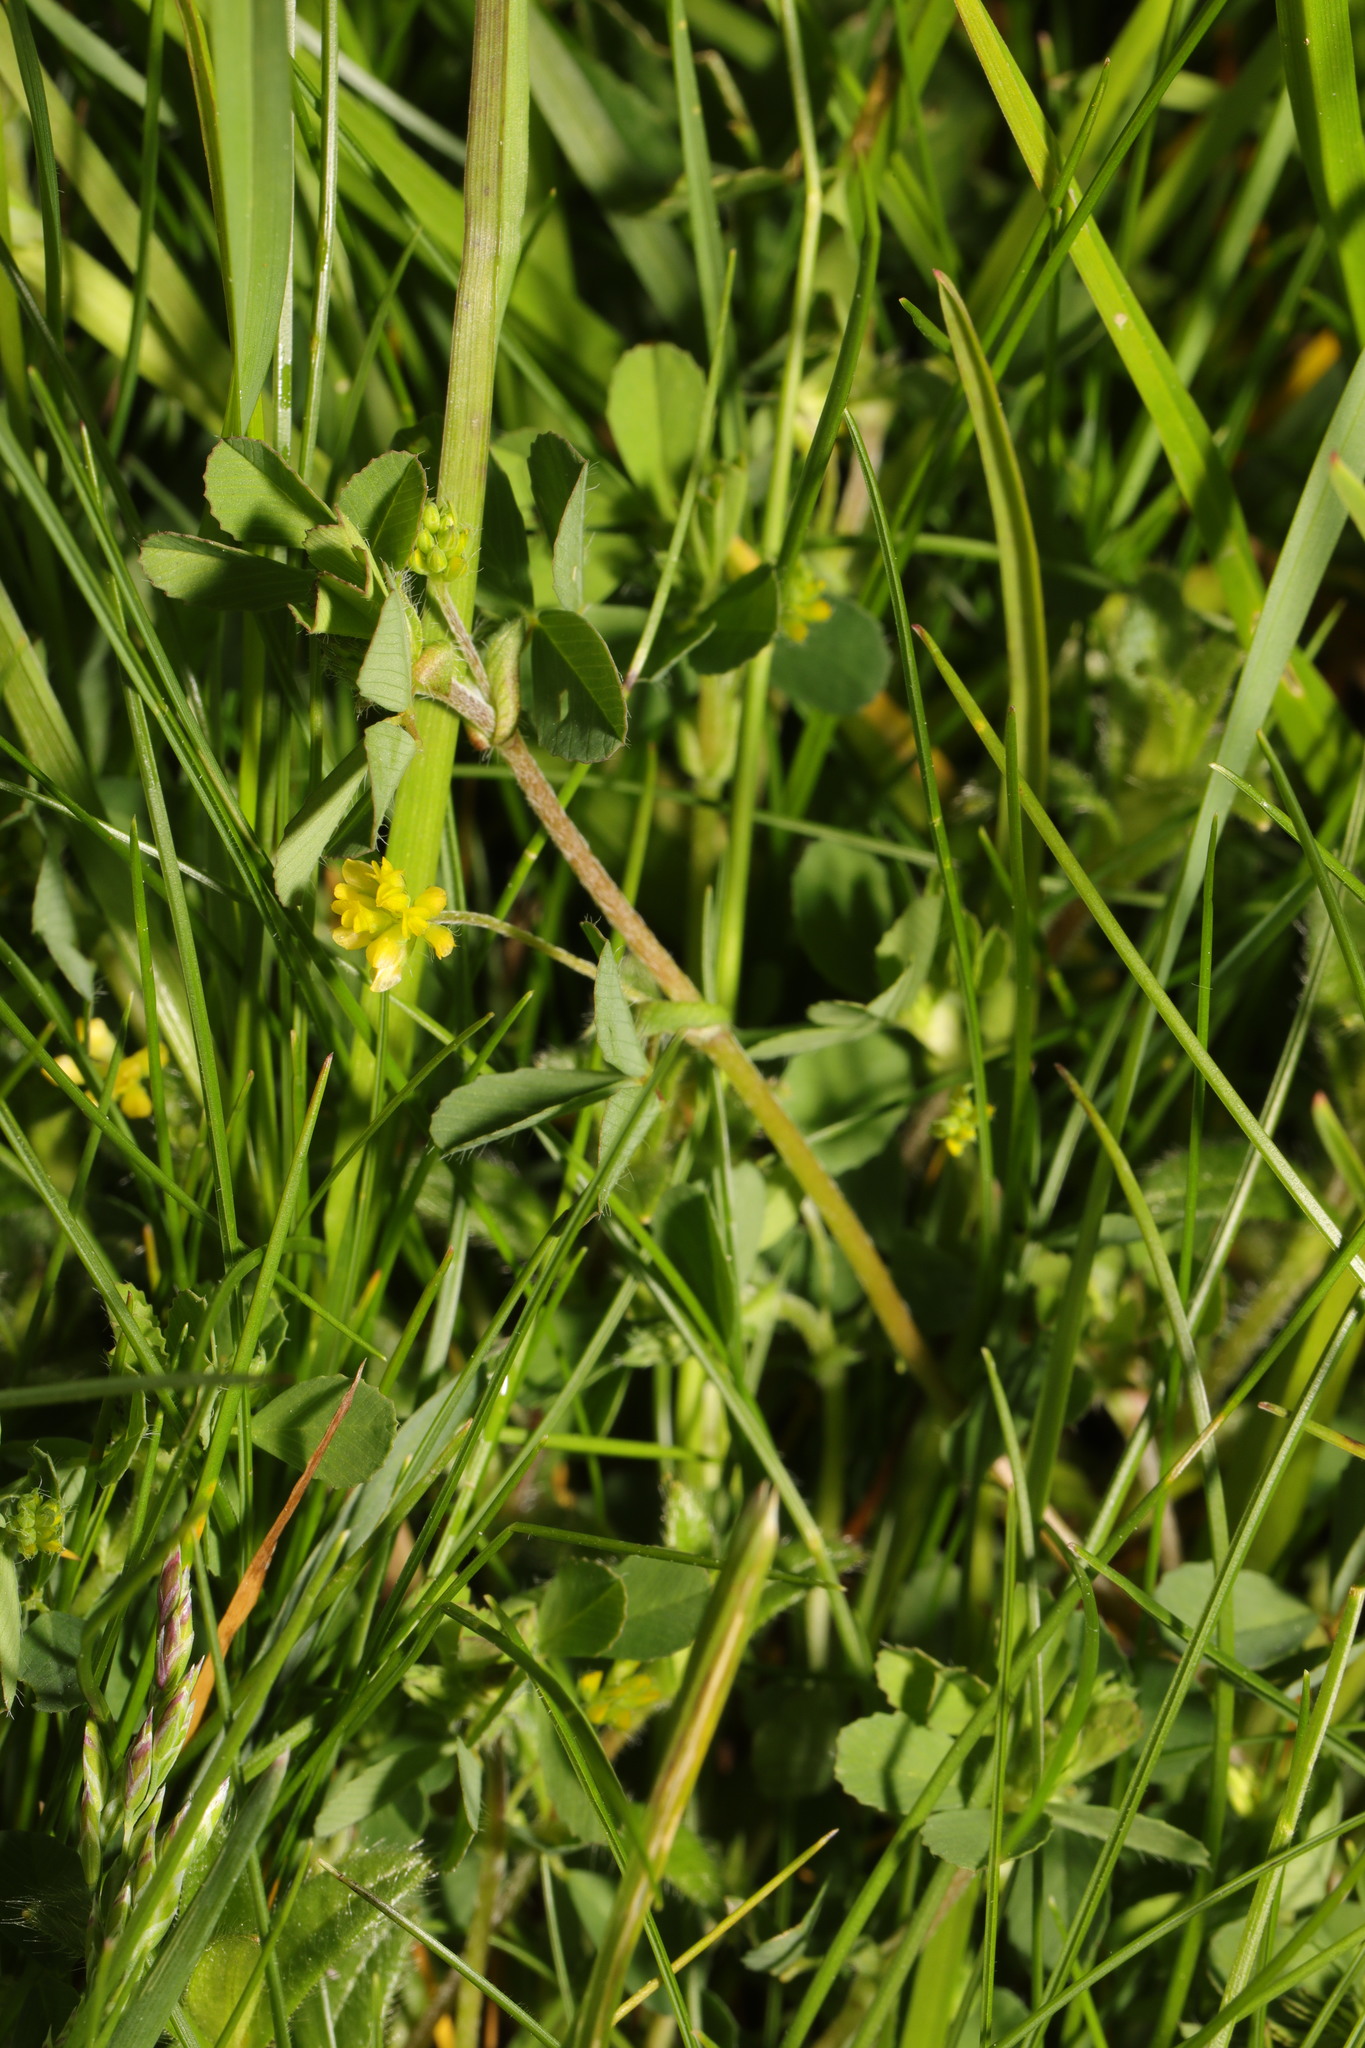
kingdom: Plantae
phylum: Tracheophyta
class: Magnoliopsida
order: Fabales
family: Fabaceae
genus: Trifolium
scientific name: Trifolium dubium
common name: Suckling clover
